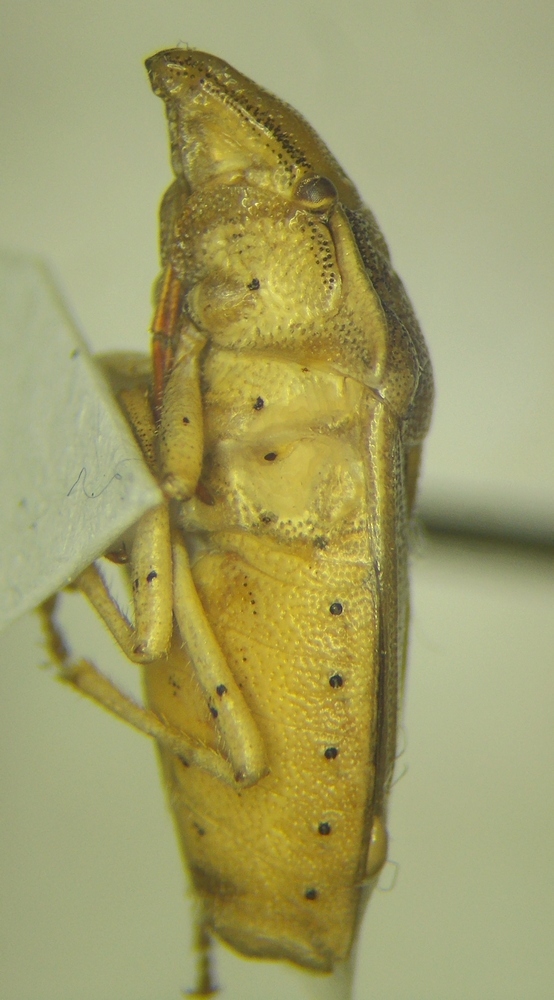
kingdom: Animalia
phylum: Arthropoda
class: Insecta
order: Hemiptera
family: Pentatomidae
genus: Aelia
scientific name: Aelia acuminata
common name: Bishop's mitre
